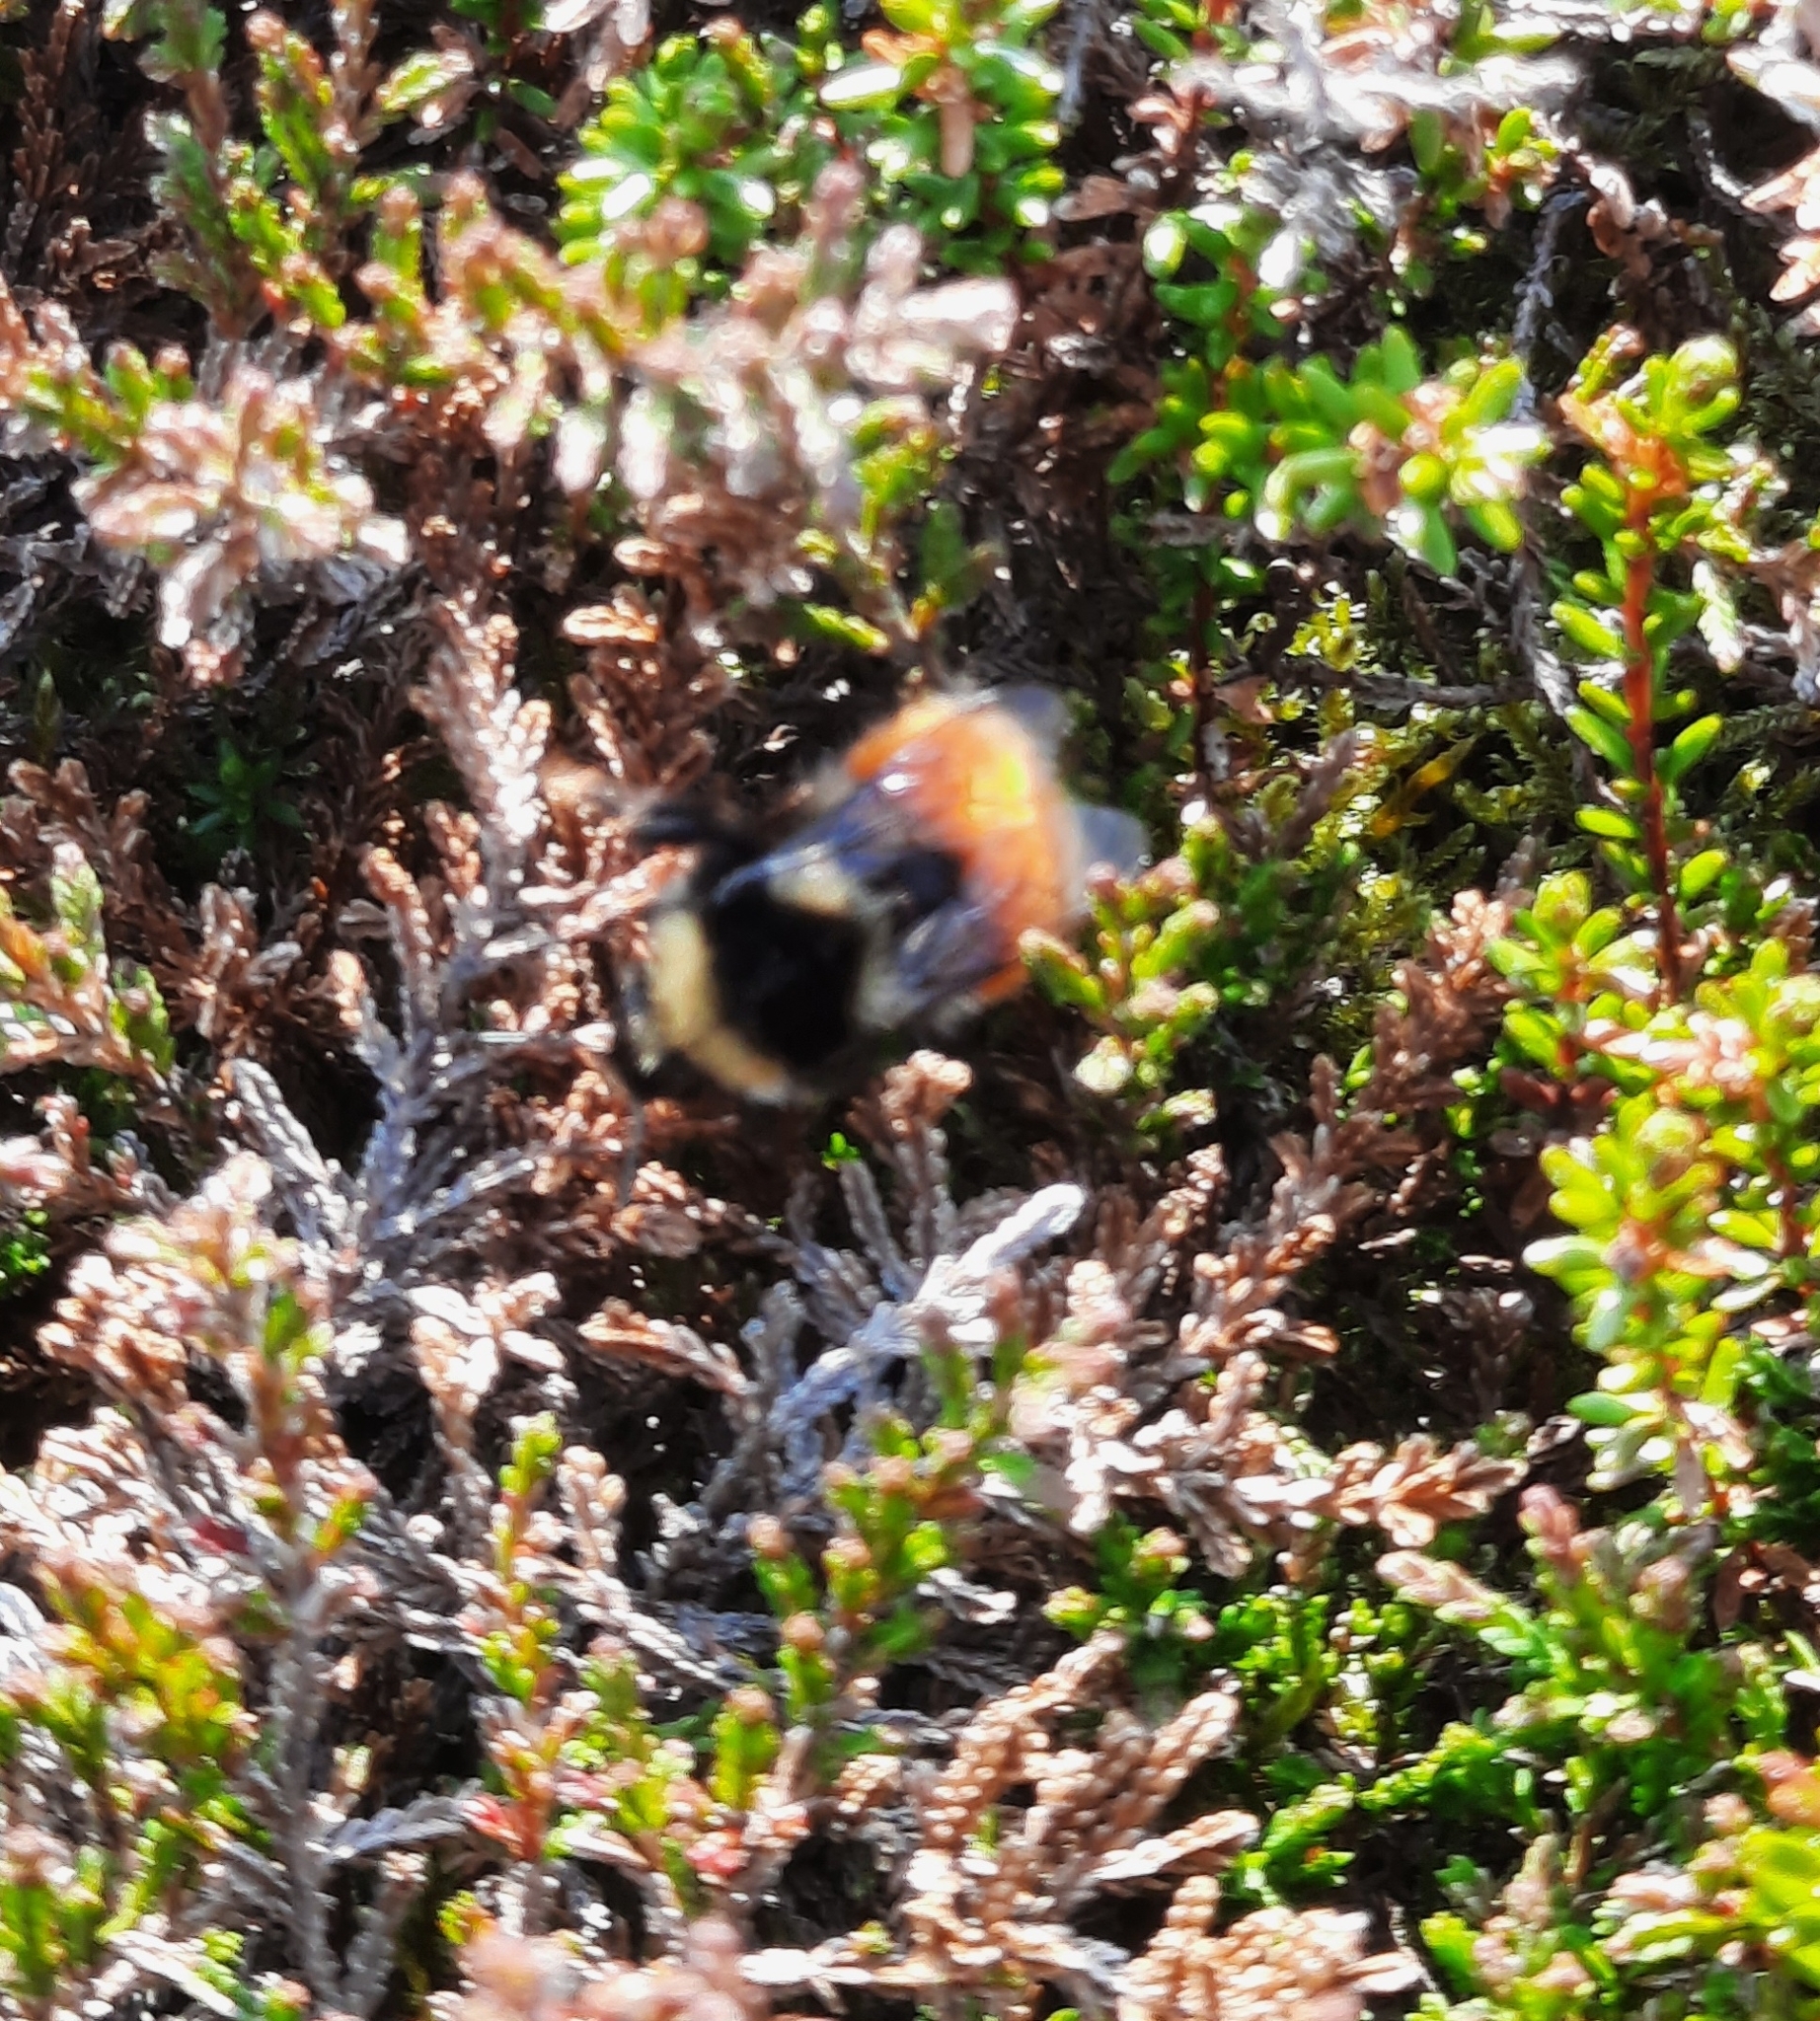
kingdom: Animalia
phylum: Arthropoda
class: Insecta
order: Hymenoptera
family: Apidae
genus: Bombus
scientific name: Bombus monticola
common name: Bilberry humble-bee
